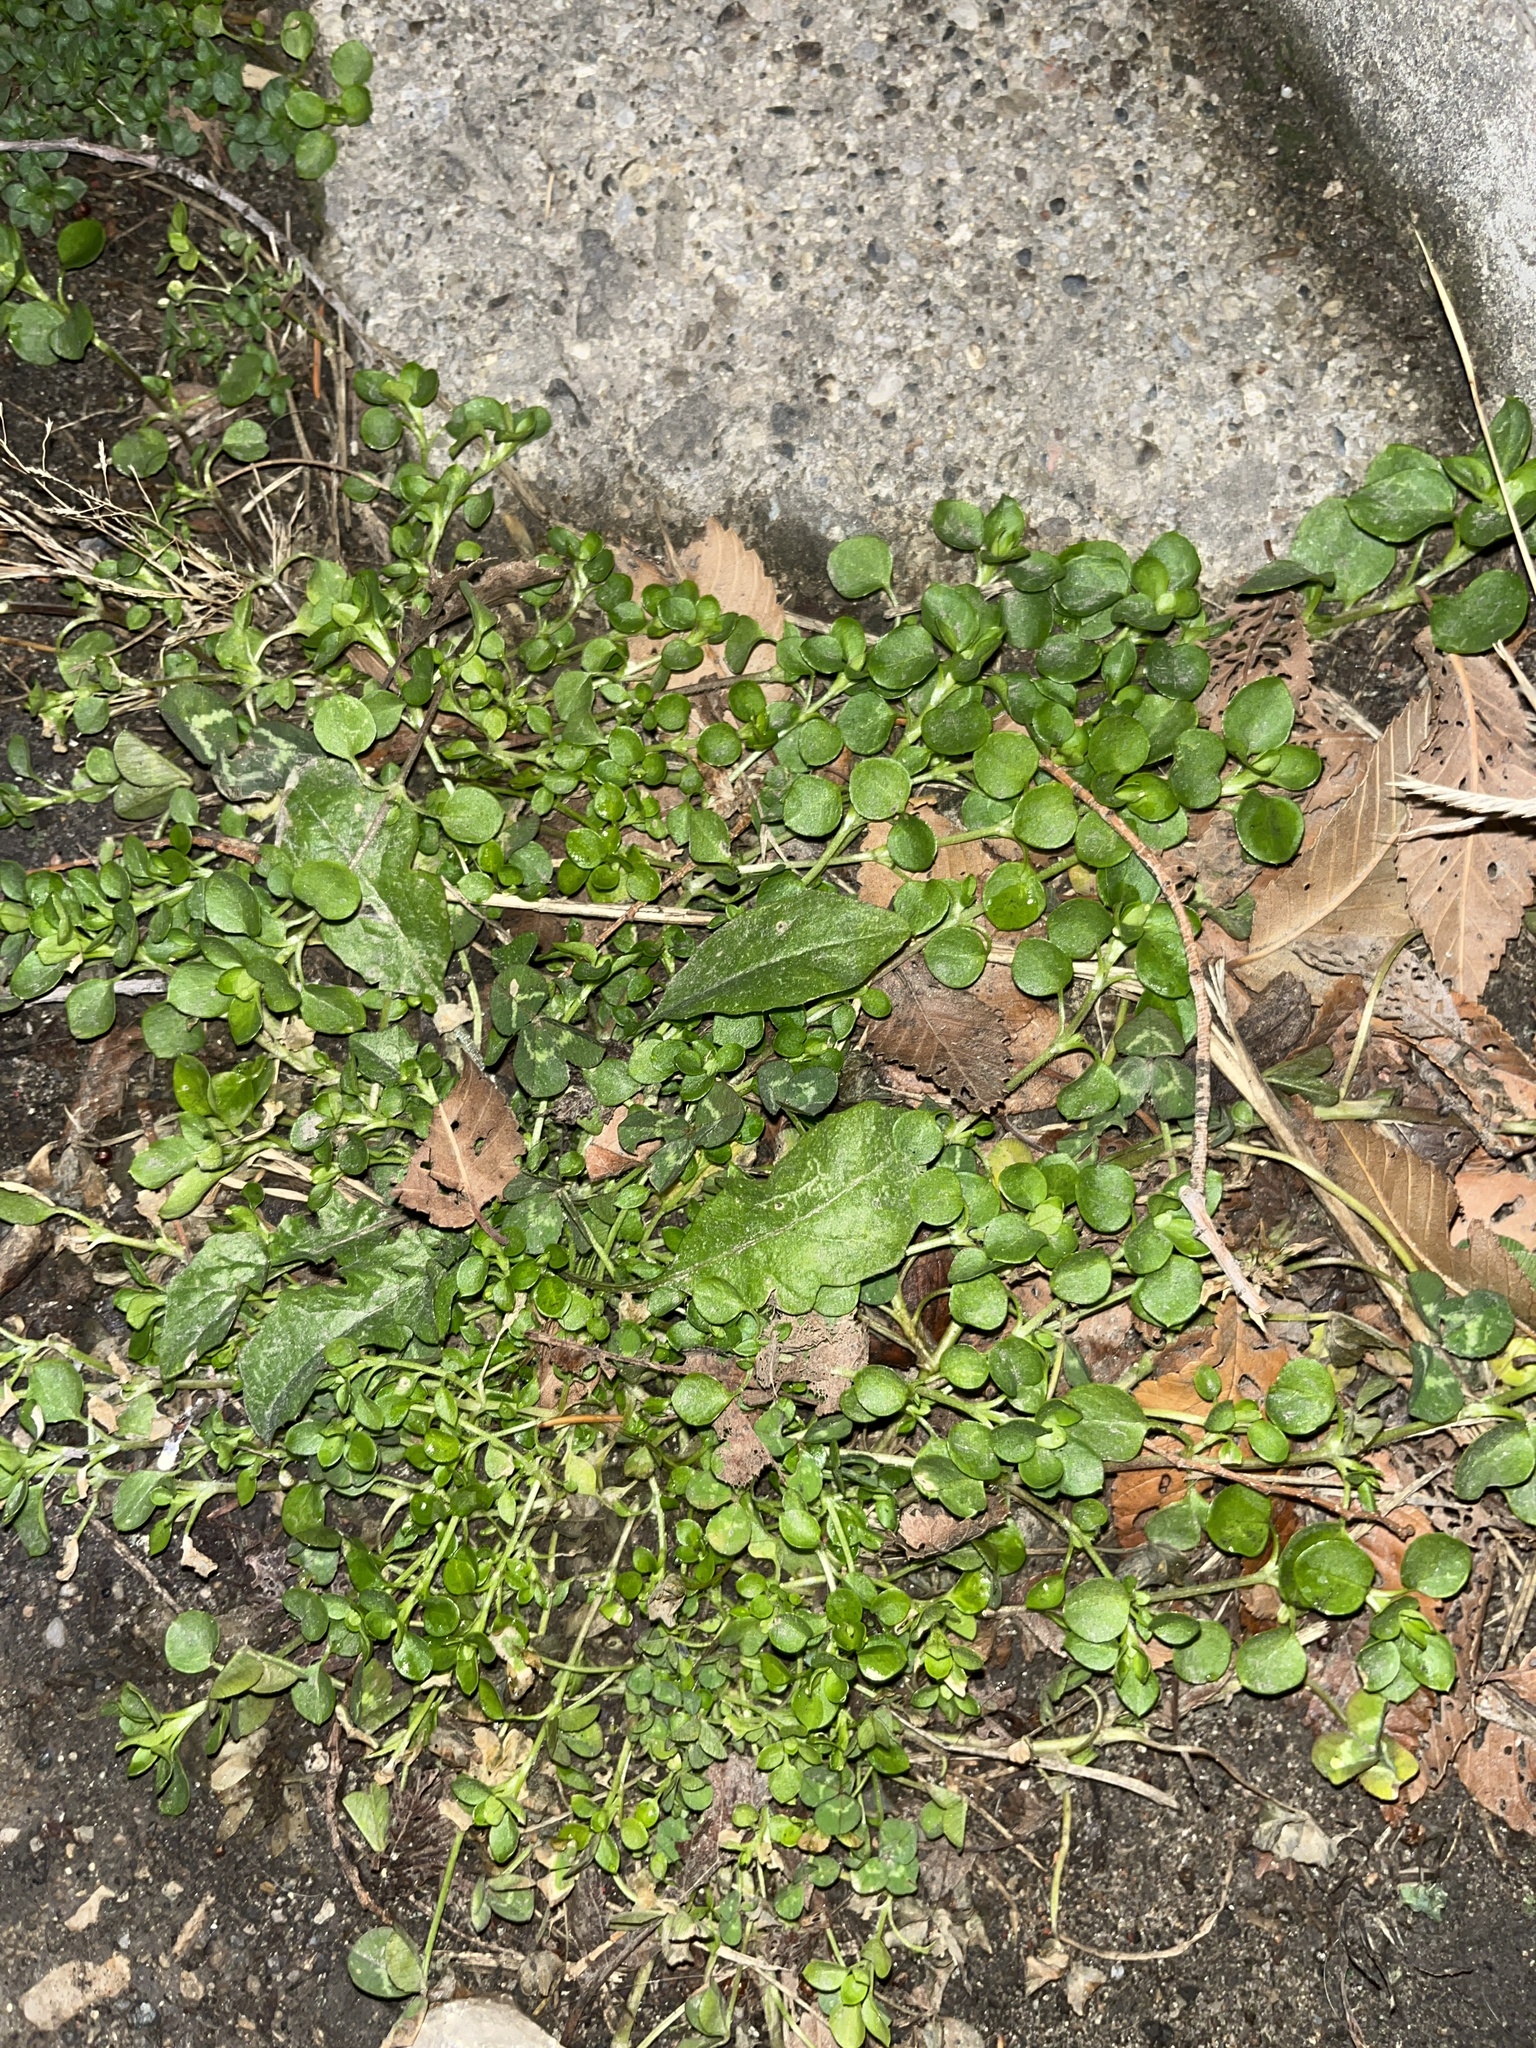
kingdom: Plantae
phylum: Tracheophyta
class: Magnoliopsida
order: Caryophyllales
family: Caryophyllaceae
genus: Stellaria
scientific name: Stellaria media
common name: Common chickweed
